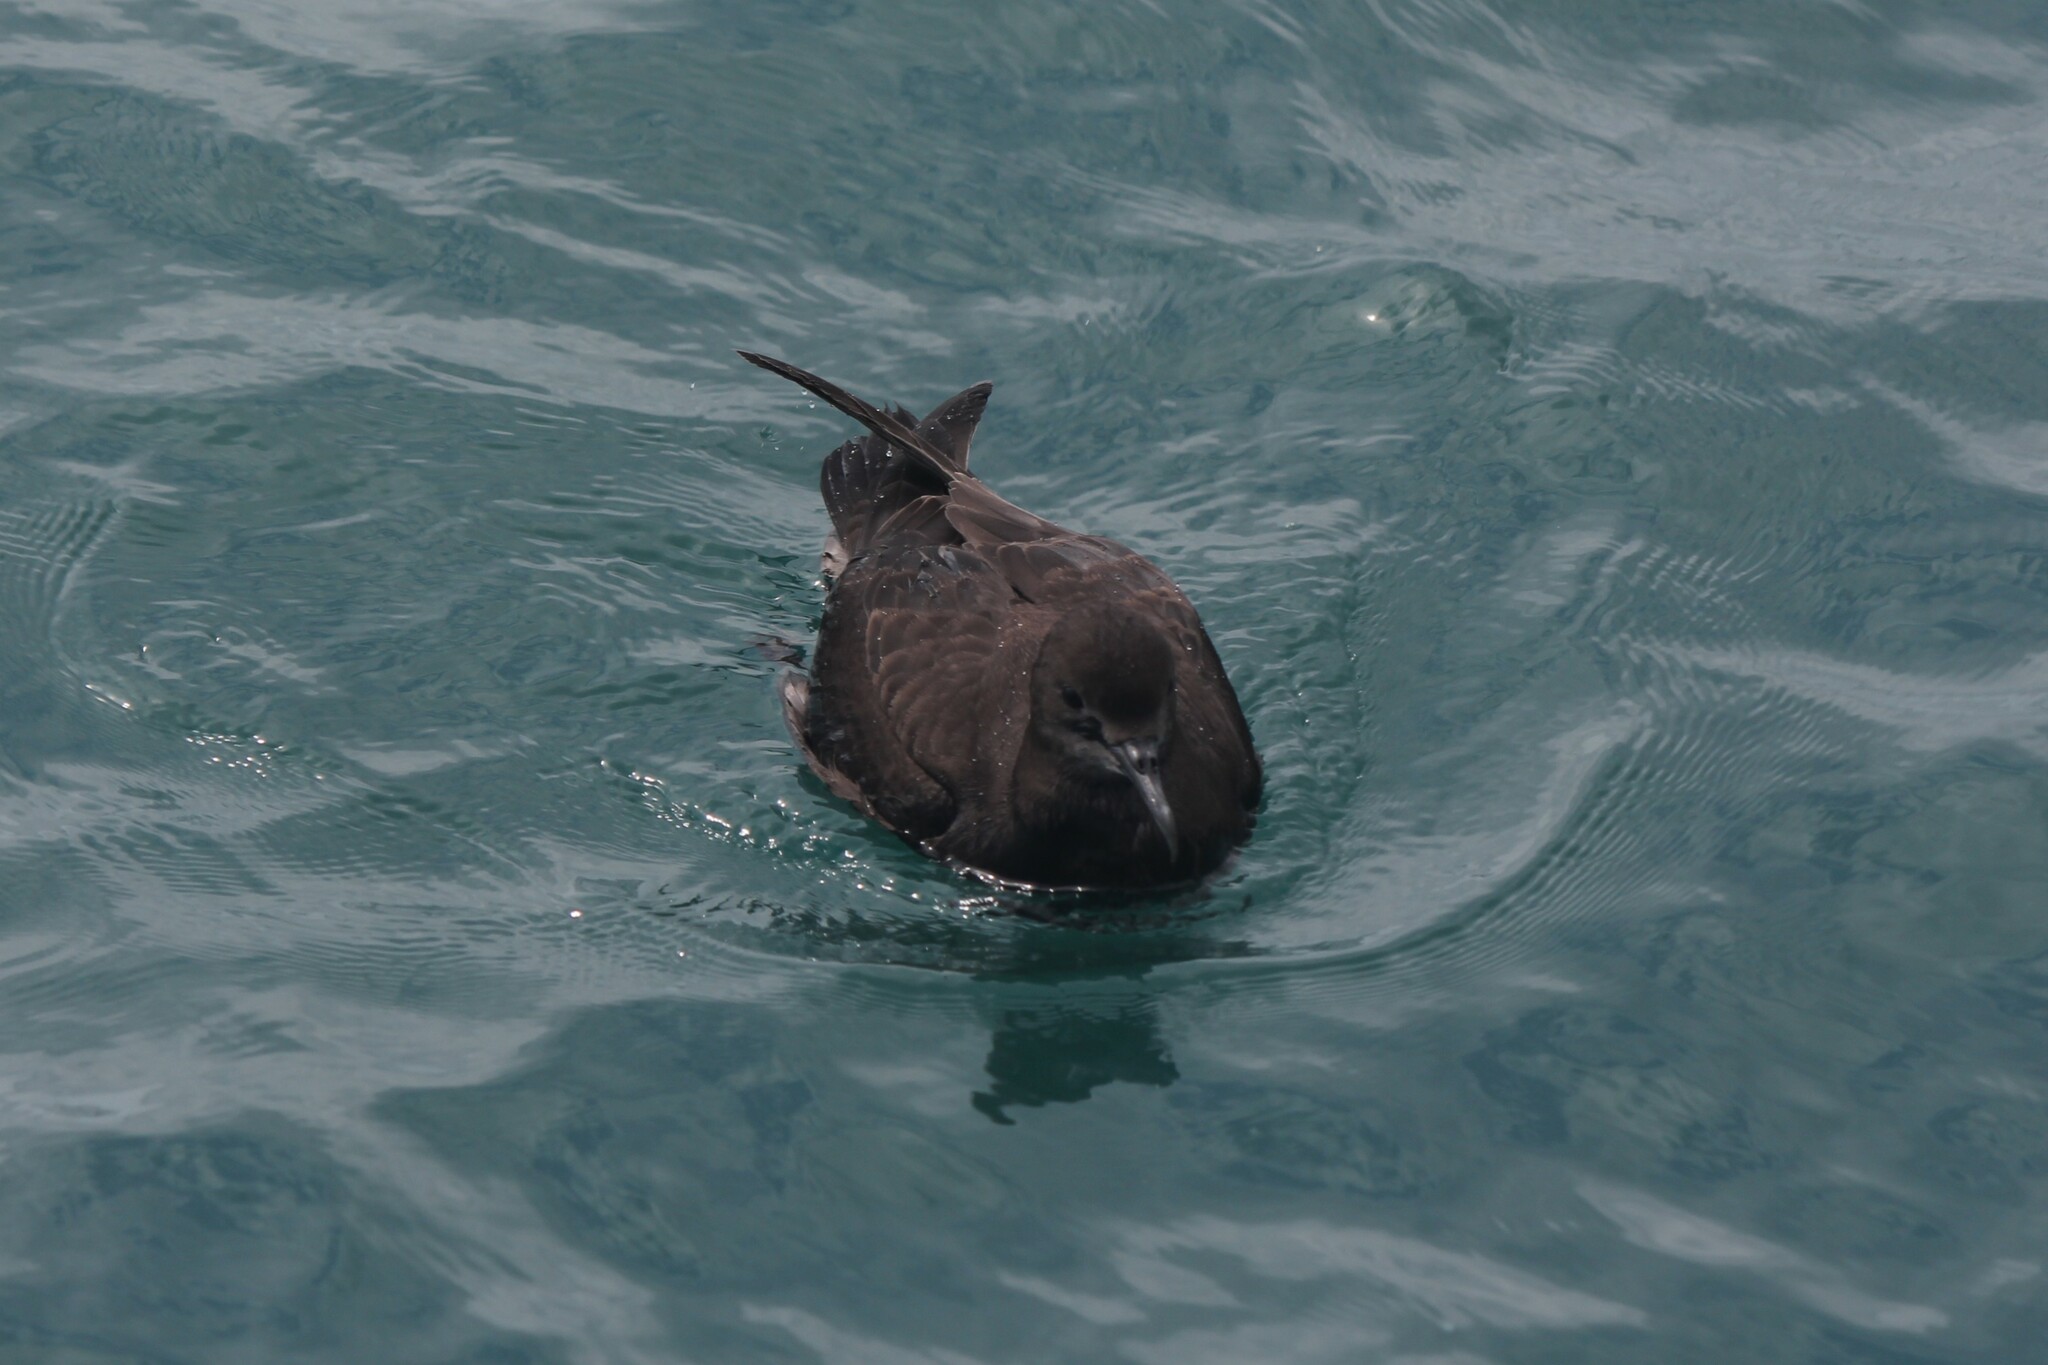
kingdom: Animalia
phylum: Chordata
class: Aves
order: Procellariiformes
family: Procellariidae
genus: Puffinus
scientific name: Puffinus griseus
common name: Sooty shearwater
